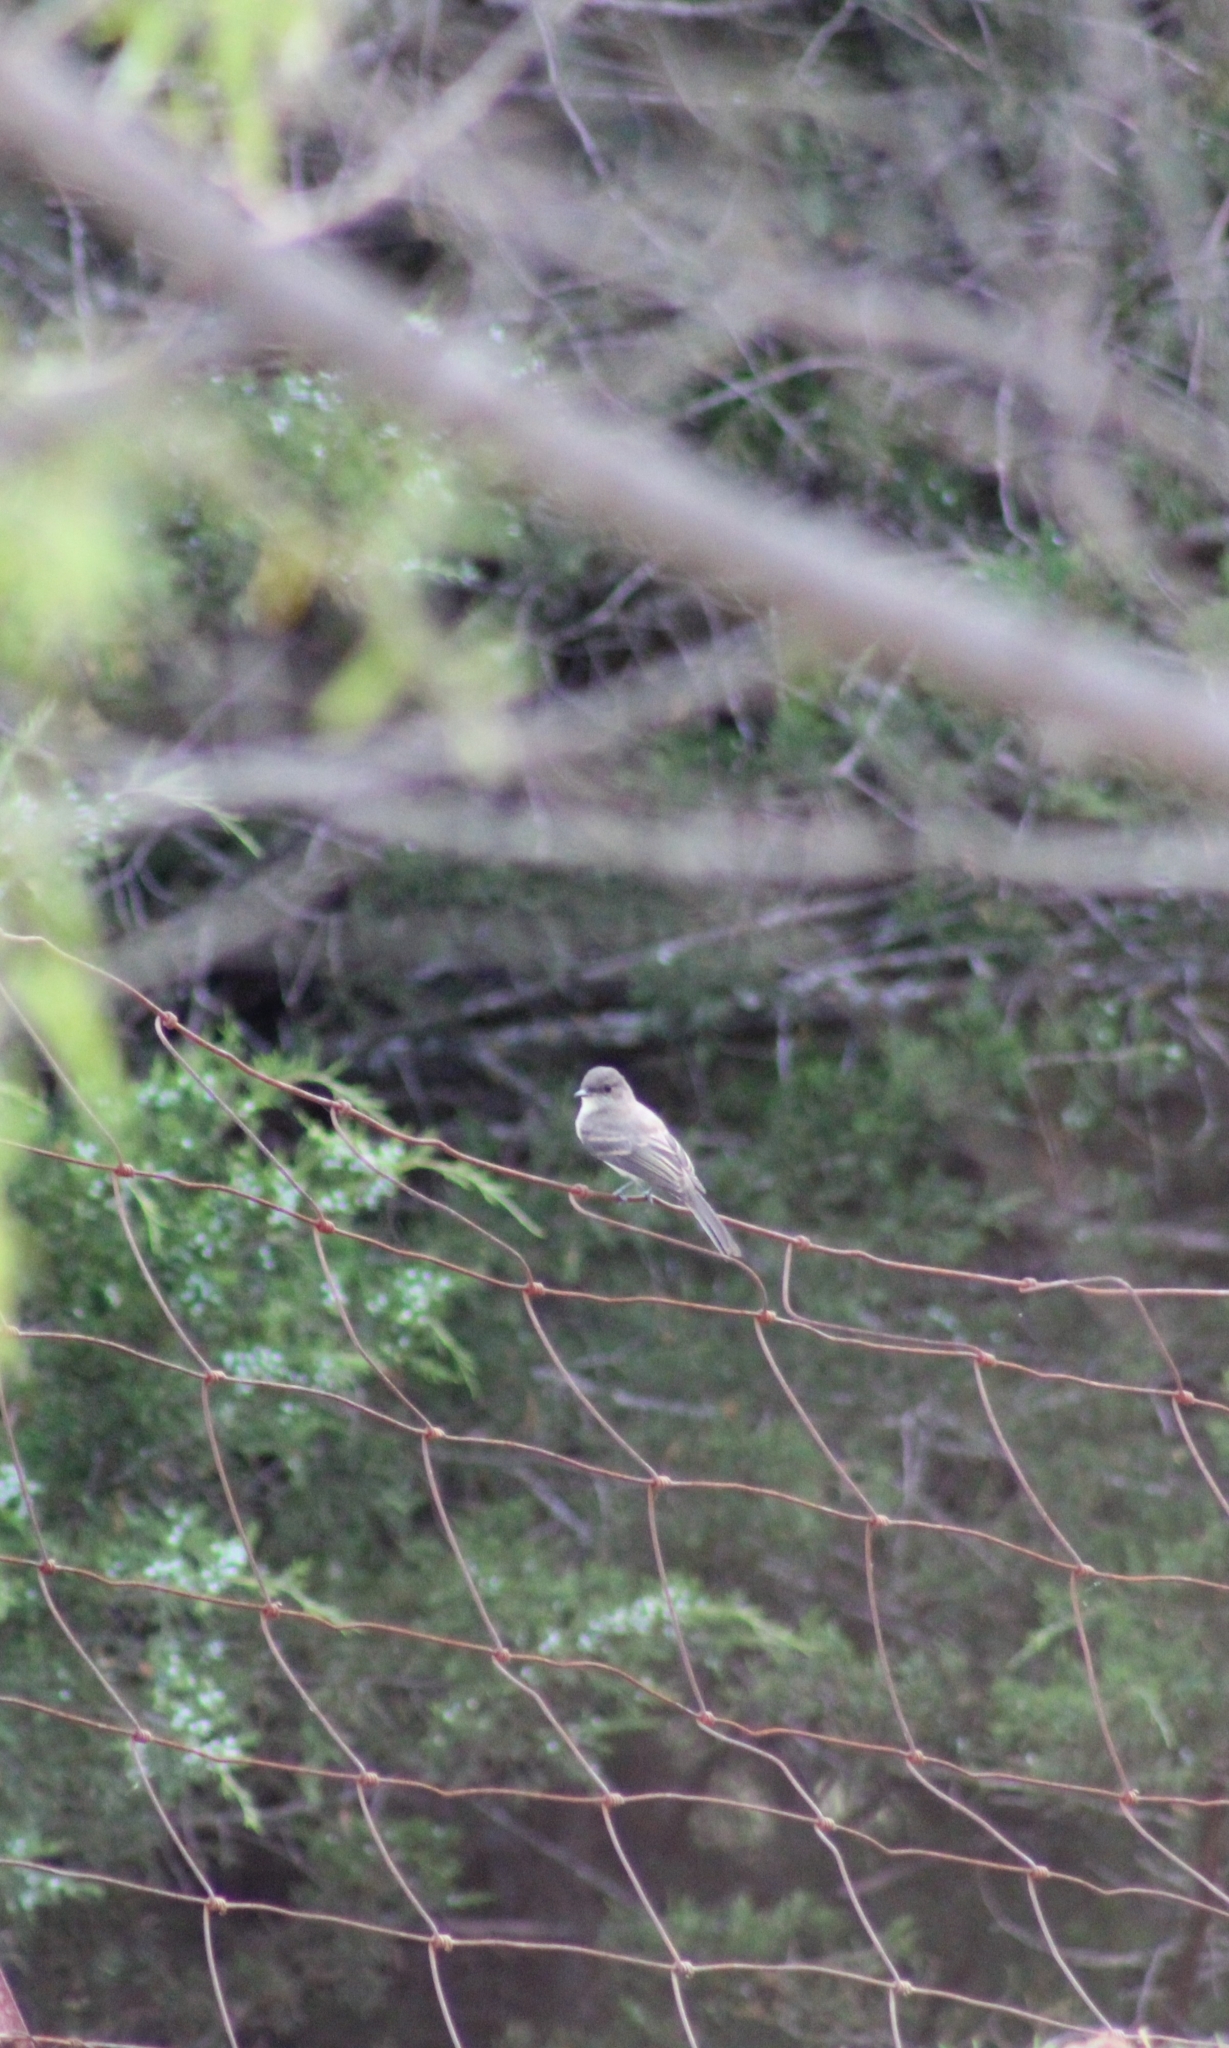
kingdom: Animalia
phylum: Chordata
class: Aves
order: Passeriformes
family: Tyrannidae
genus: Sayornis
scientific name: Sayornis phoebe
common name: Eastern phoebe
